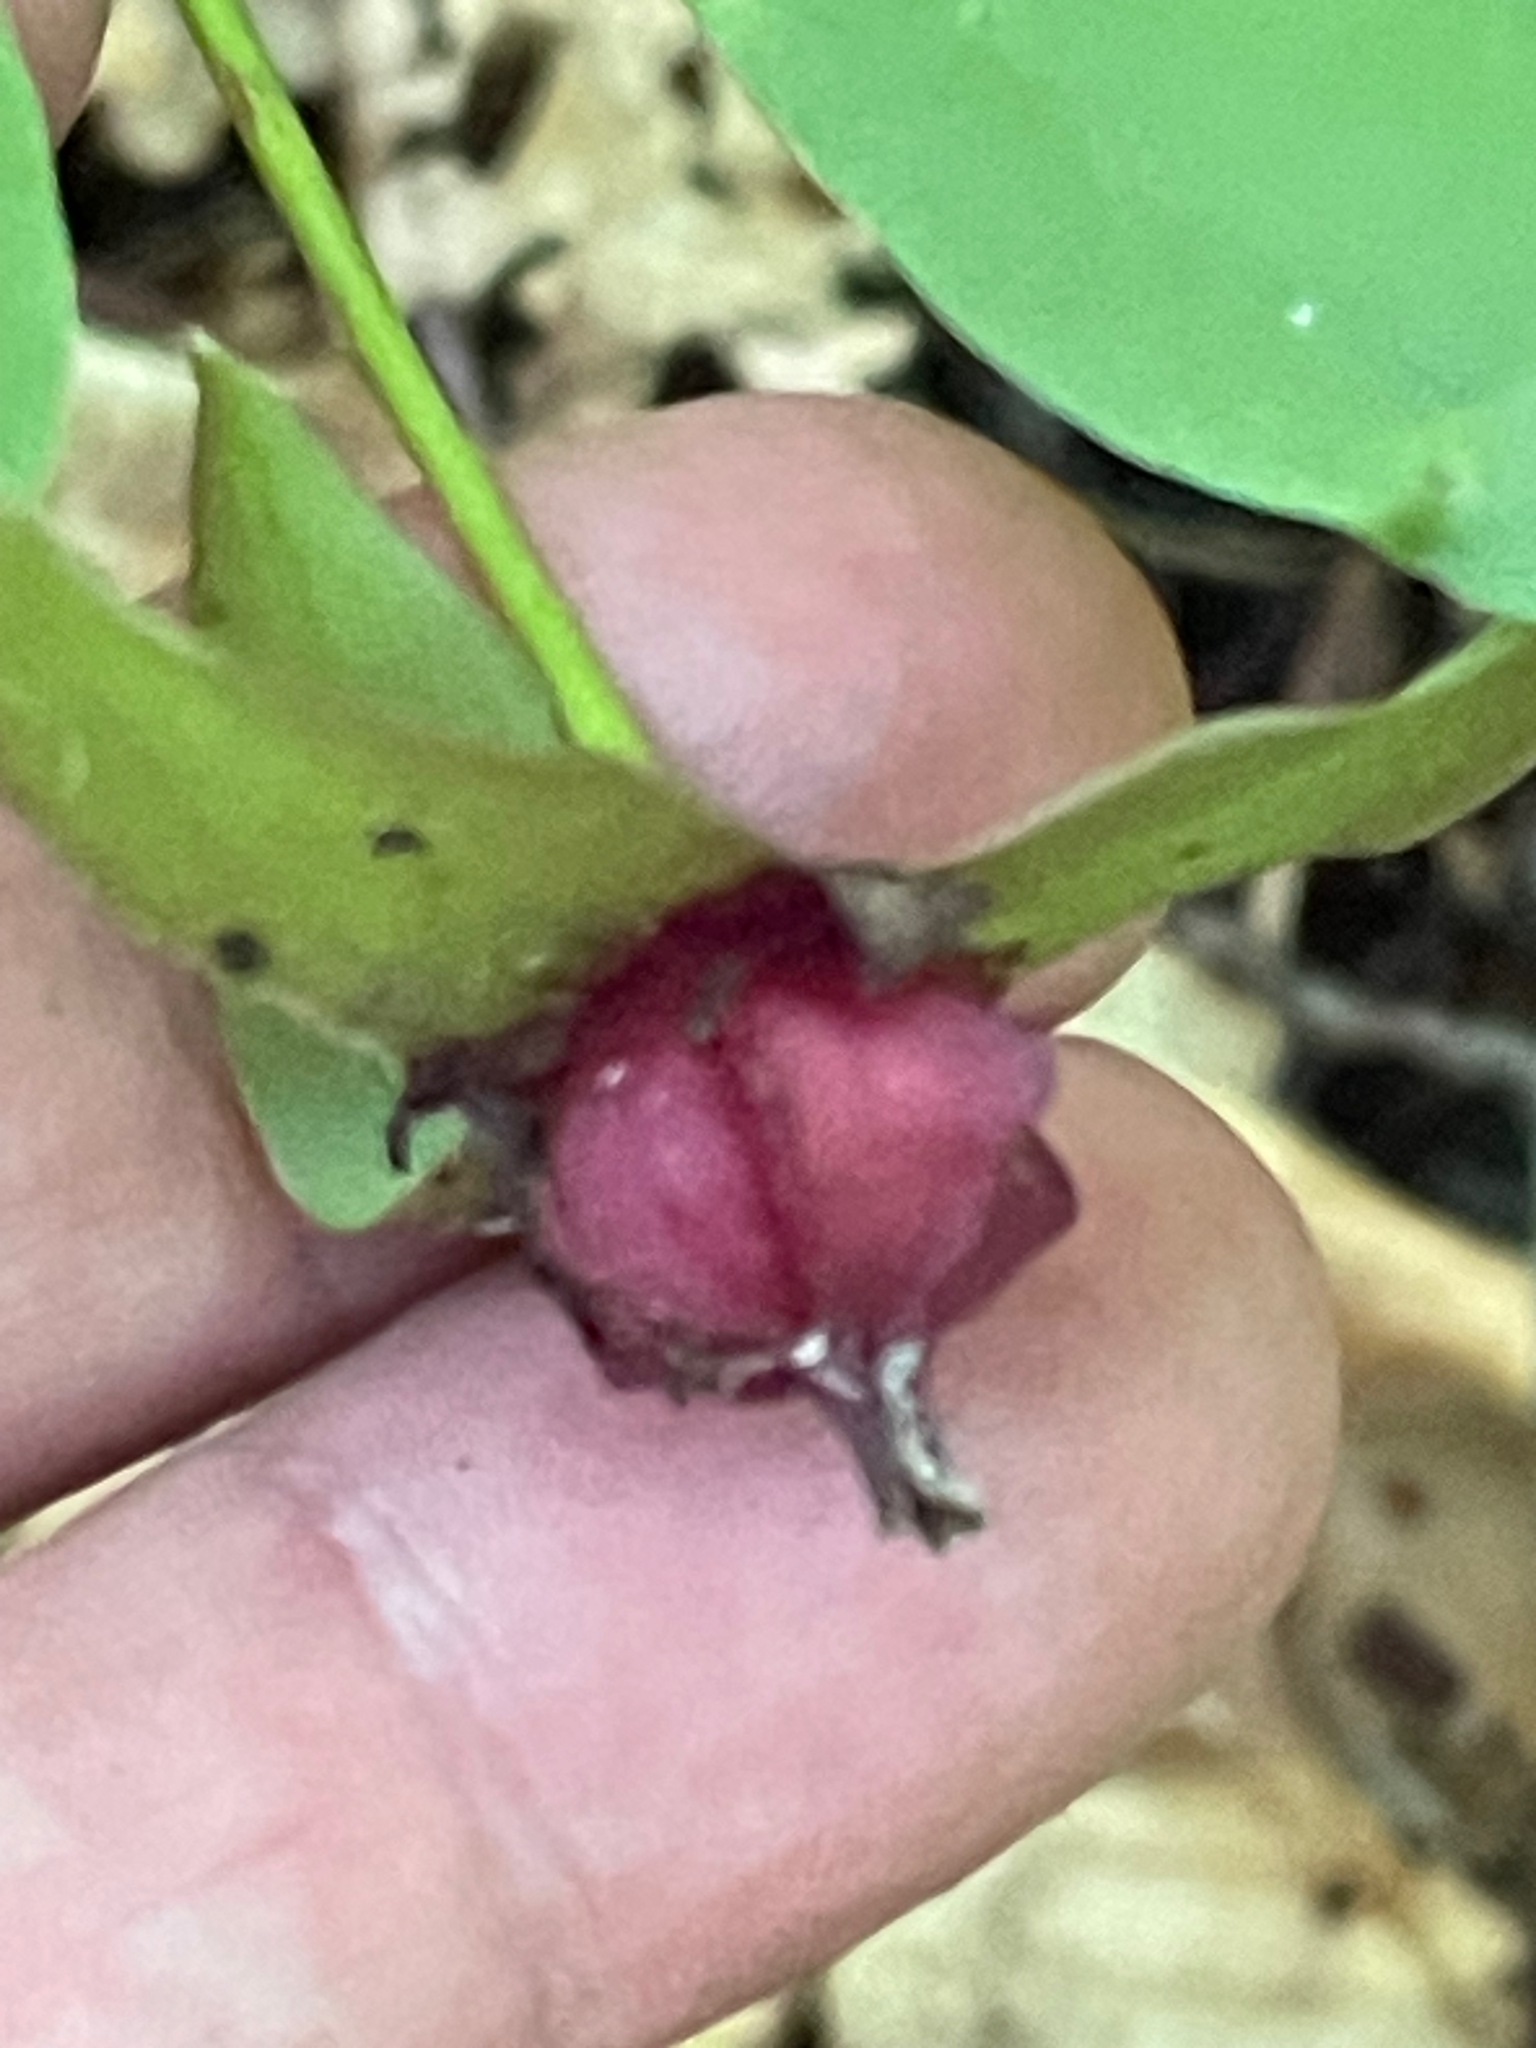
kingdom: Plantae
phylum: Tracheophyta
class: Liliopsida
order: Liliales
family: Melanthiaceae
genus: Trillium
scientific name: Trillium erectum
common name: Purple trillium
